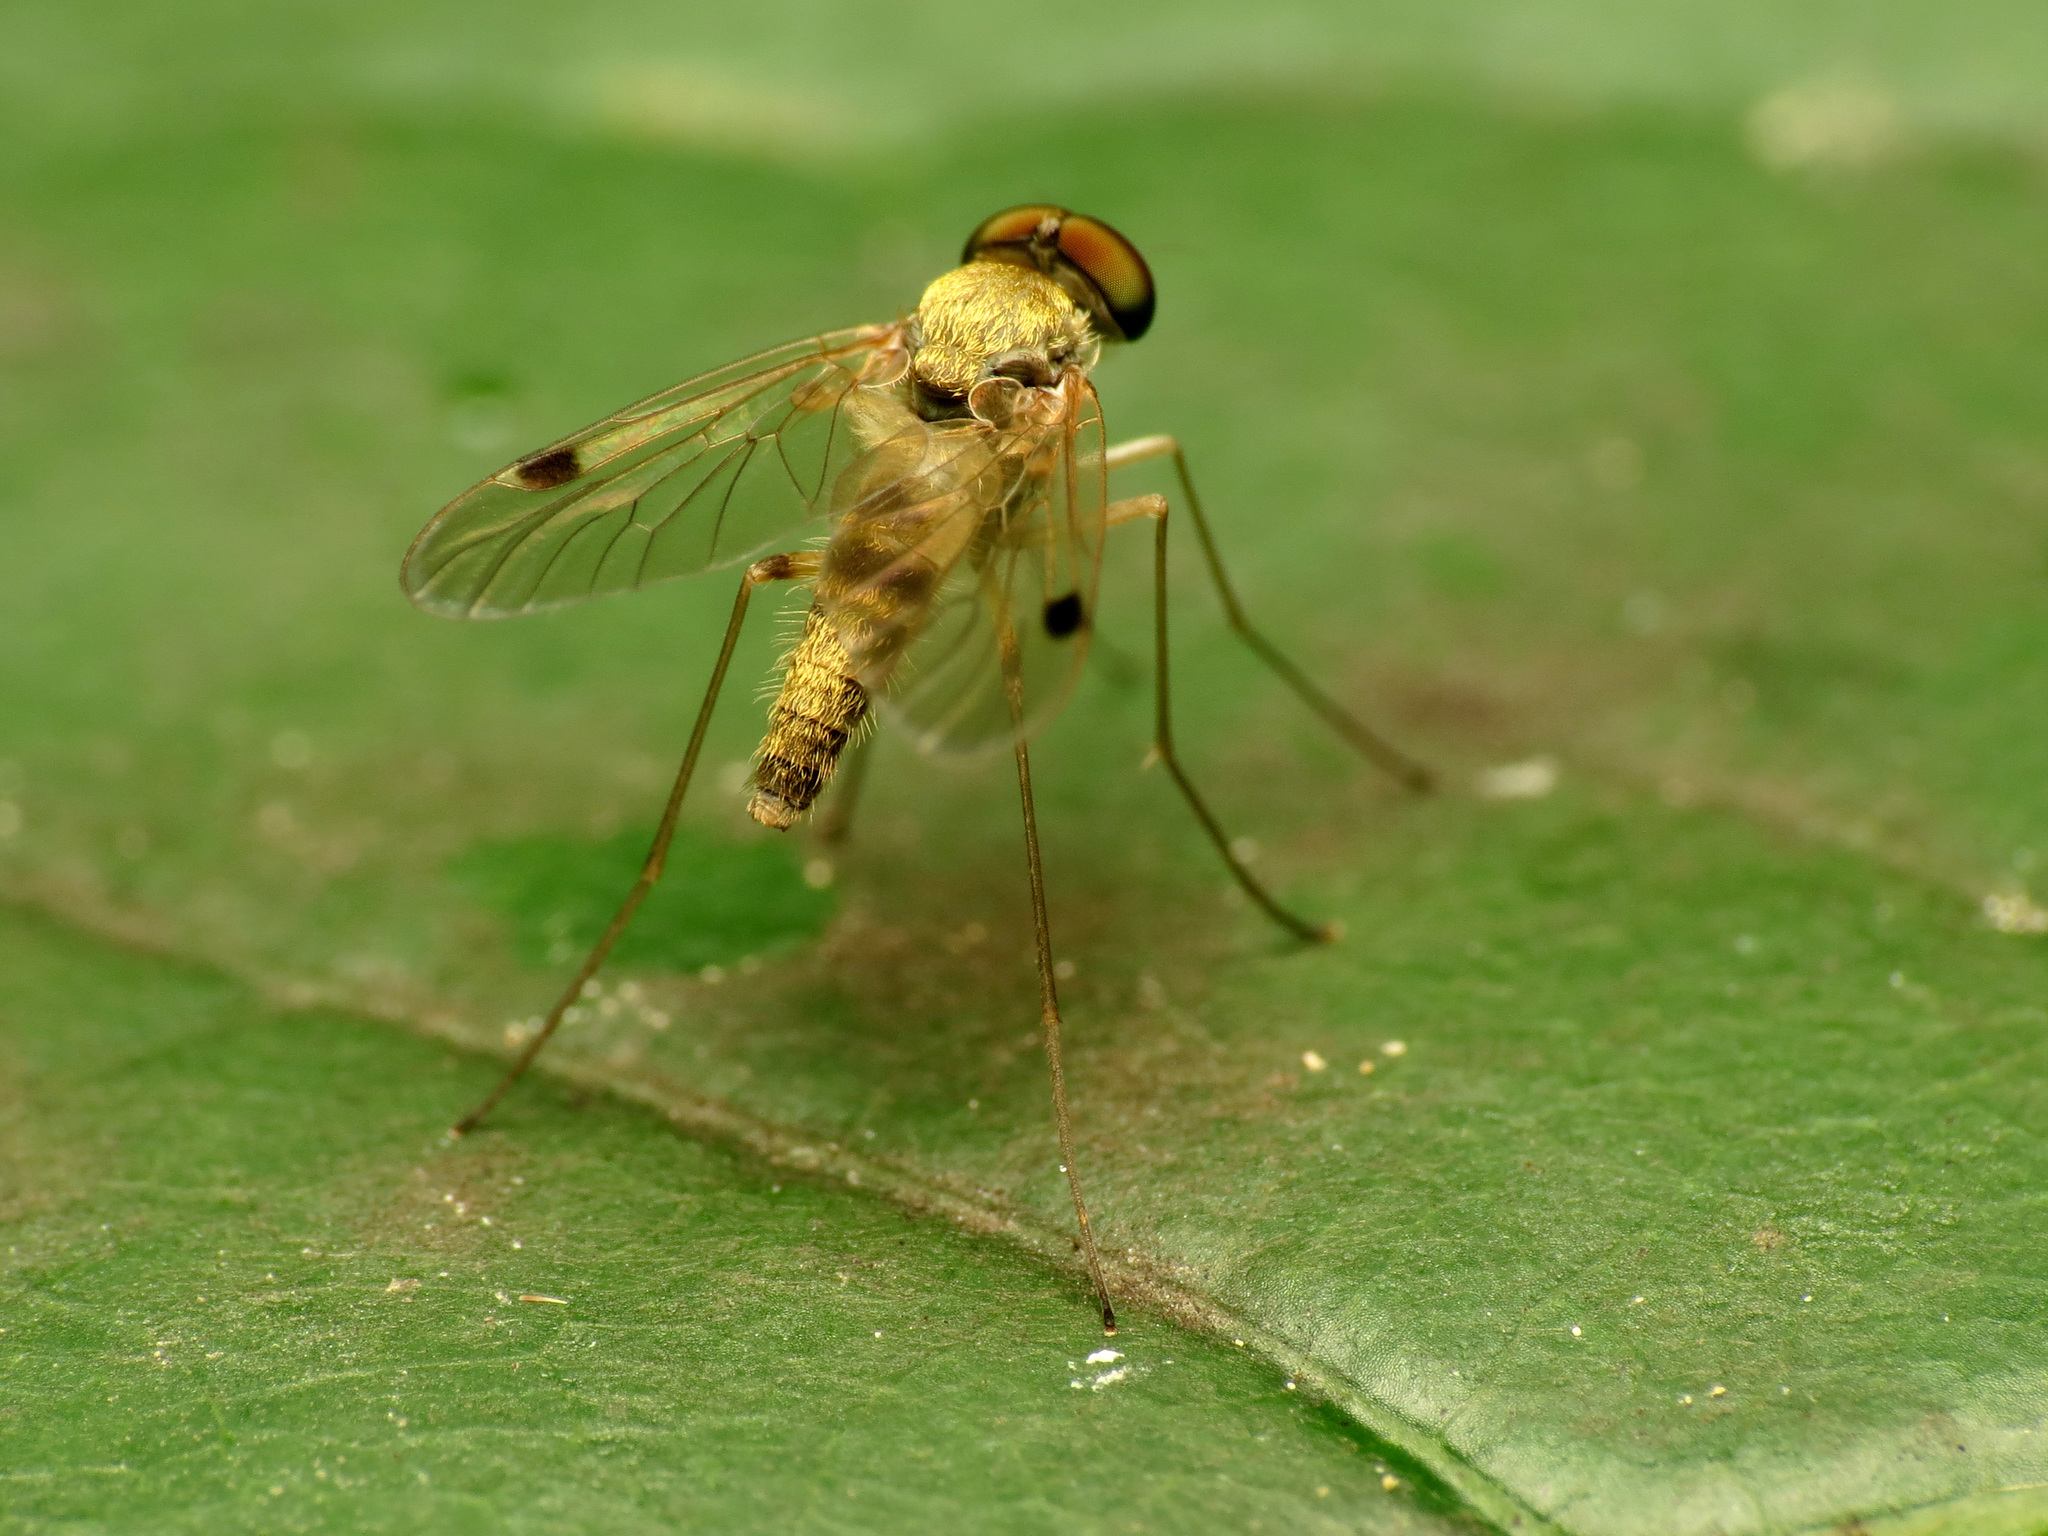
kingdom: Animalia
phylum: Arthropoda
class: Insecta
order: Diptera
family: Rhagionidae
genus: Chrysopilus
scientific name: Chrysopilus modestus
